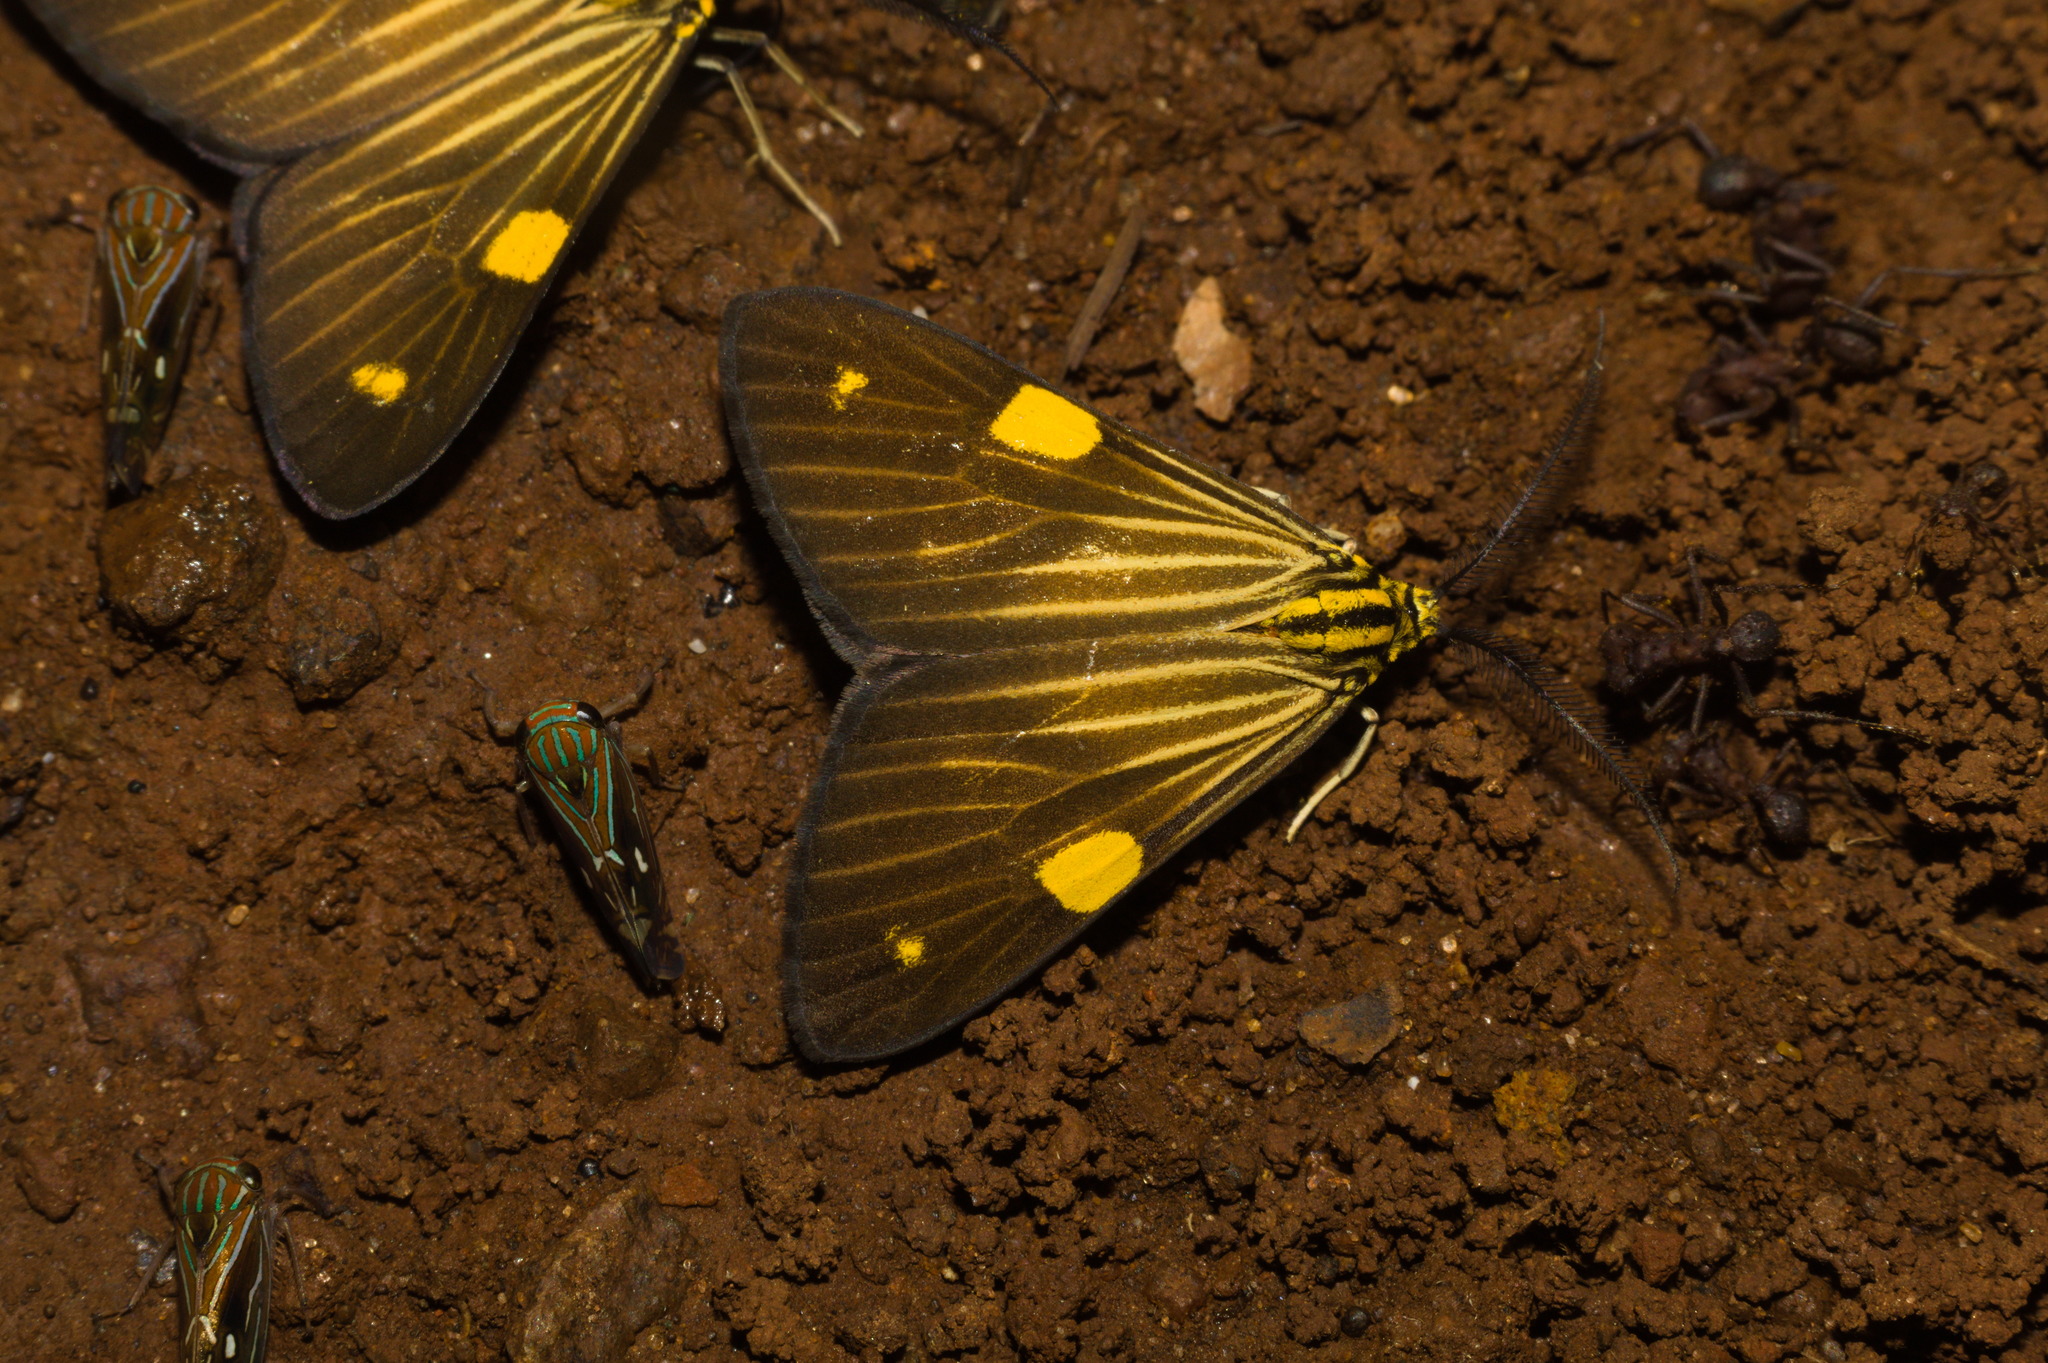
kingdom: Animalia
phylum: Arthropoda
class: Insecta
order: Lepidoptera
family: Notodontidae
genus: Phaeochlaena
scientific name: Phaeochlaena
